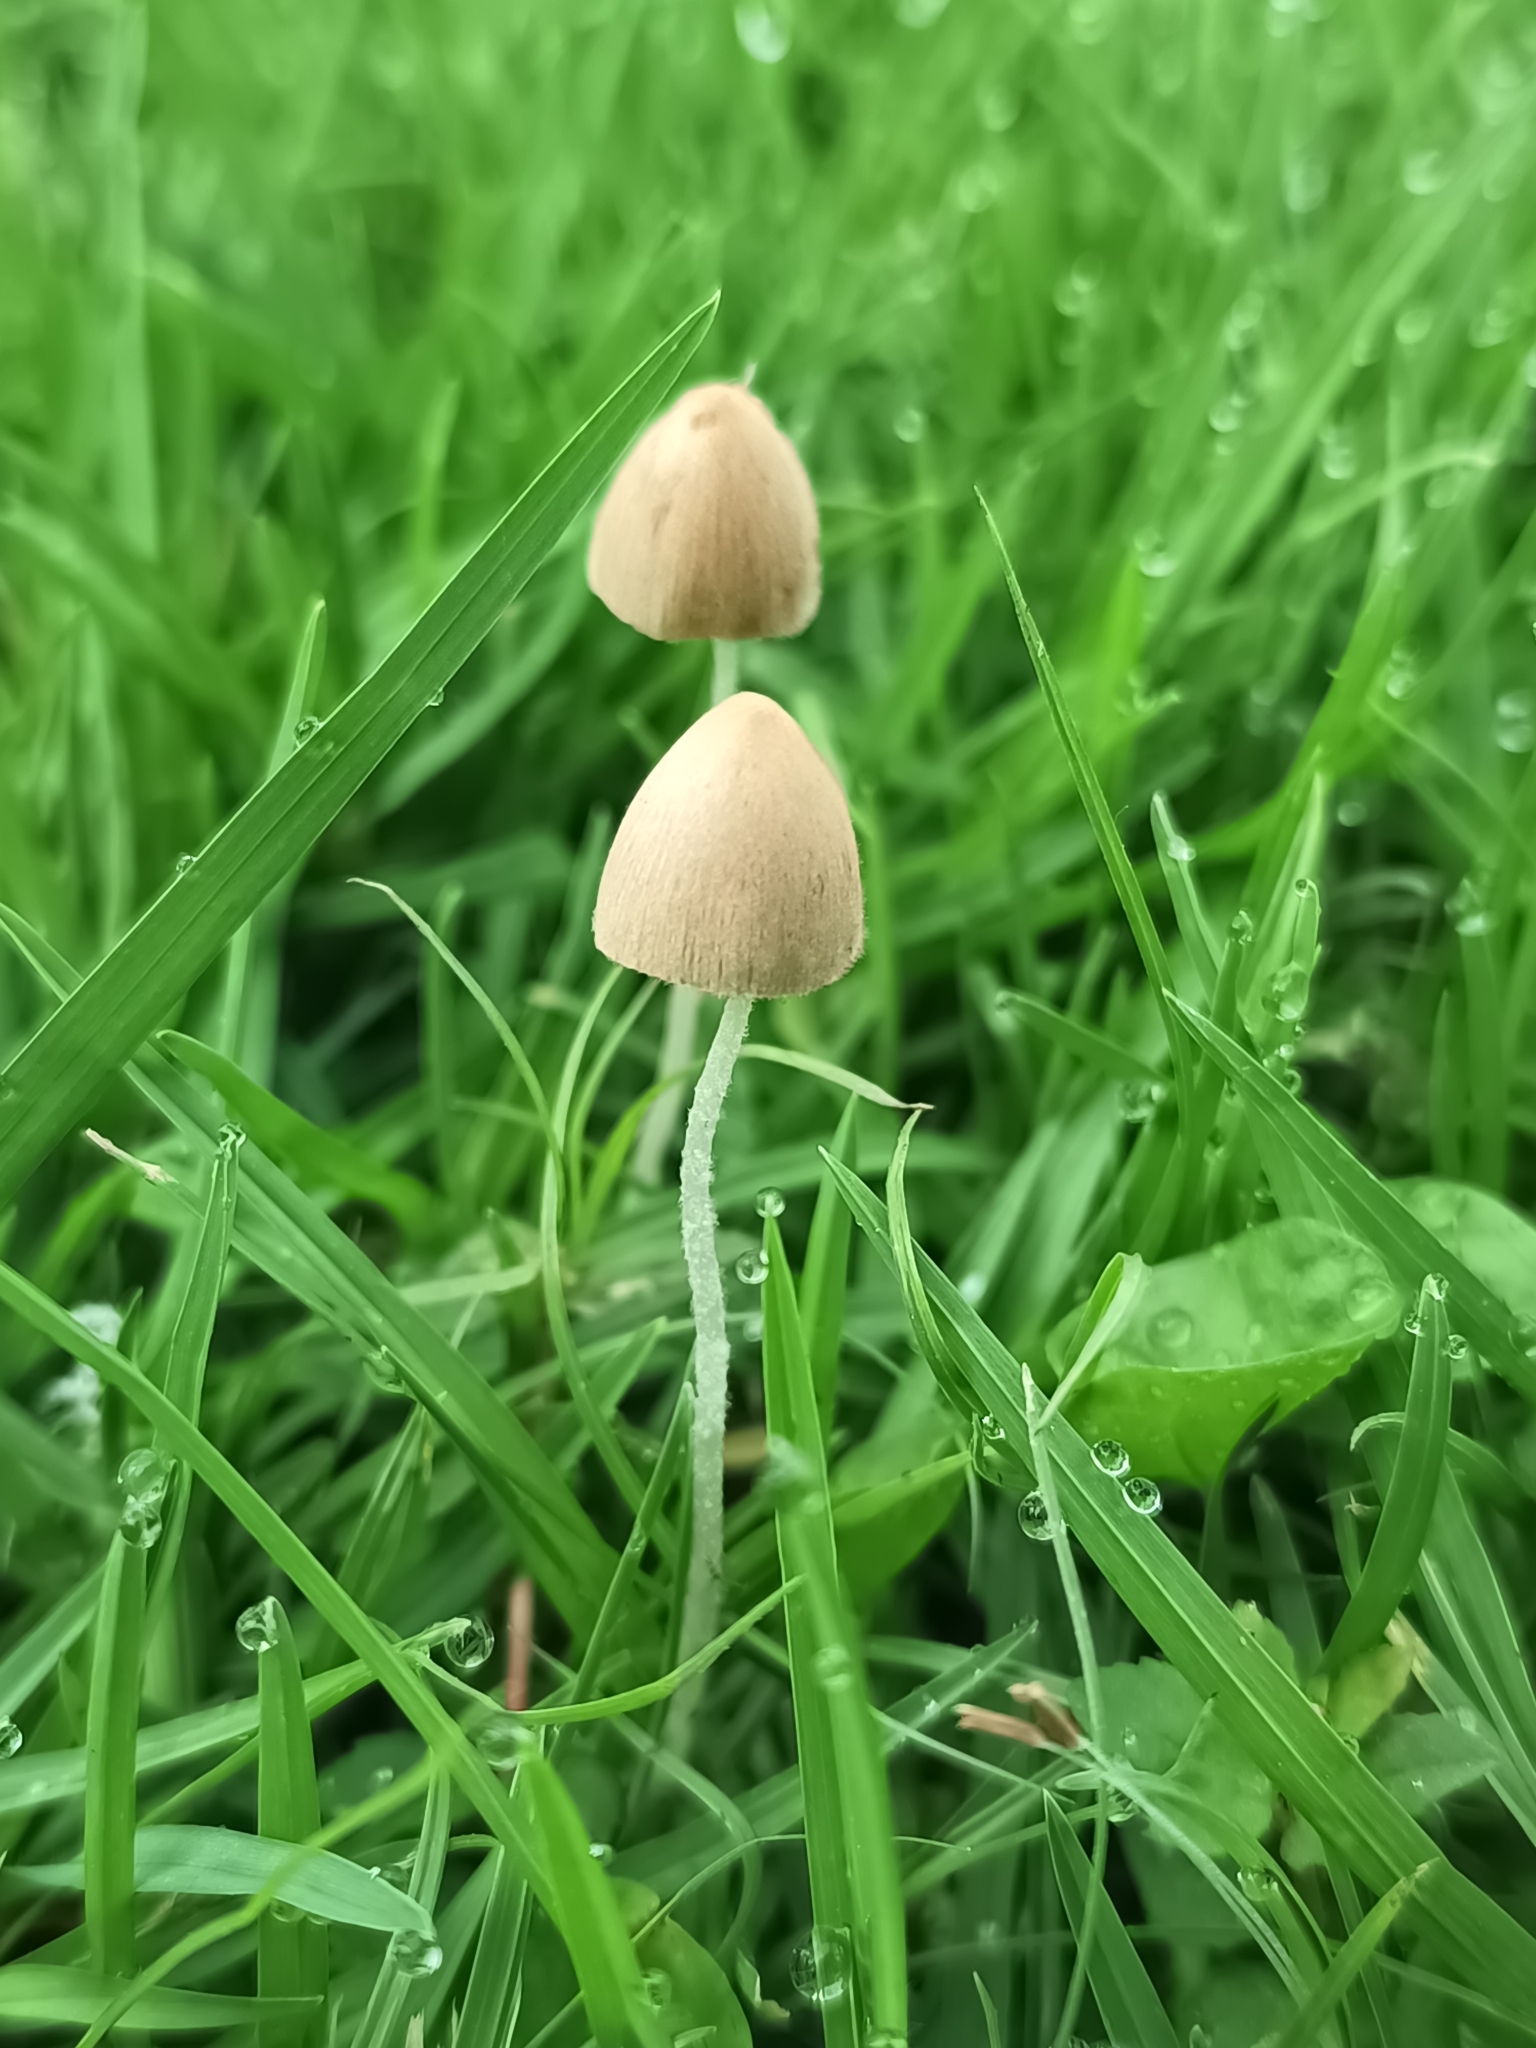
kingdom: Fungi
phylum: Basidiomycota
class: Agaricomycetes
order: Agaricales
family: Bolbitiaceae
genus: Conocybe
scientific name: Conocybe apala
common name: Milky conecap
